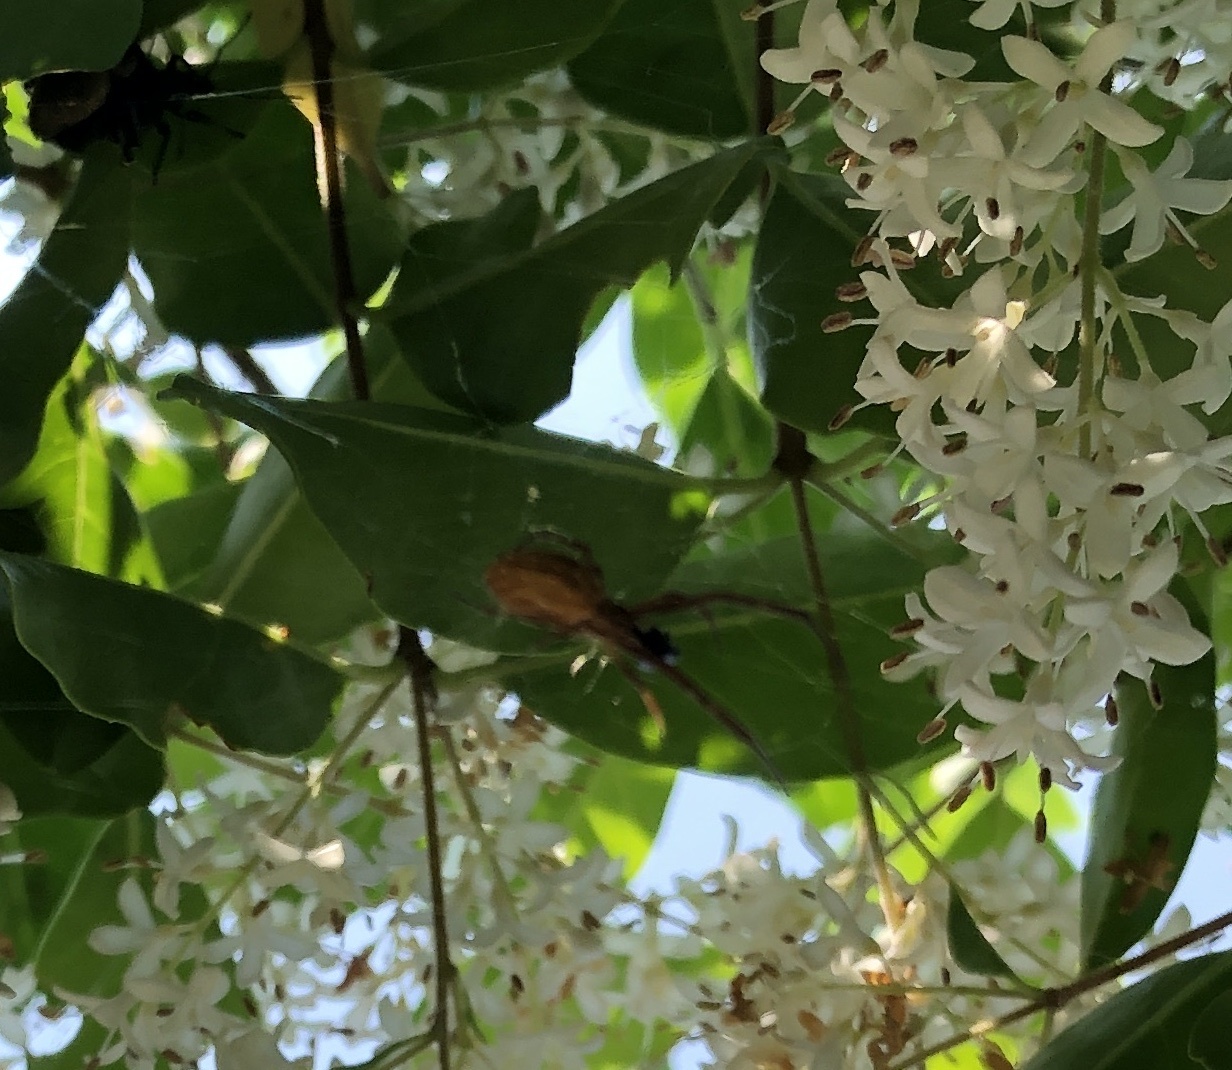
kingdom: Animalia
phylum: Arthropoda
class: Arachnida
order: Araneae
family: Uloboridae
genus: Uloborus
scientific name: Uloborus walckenaerius
